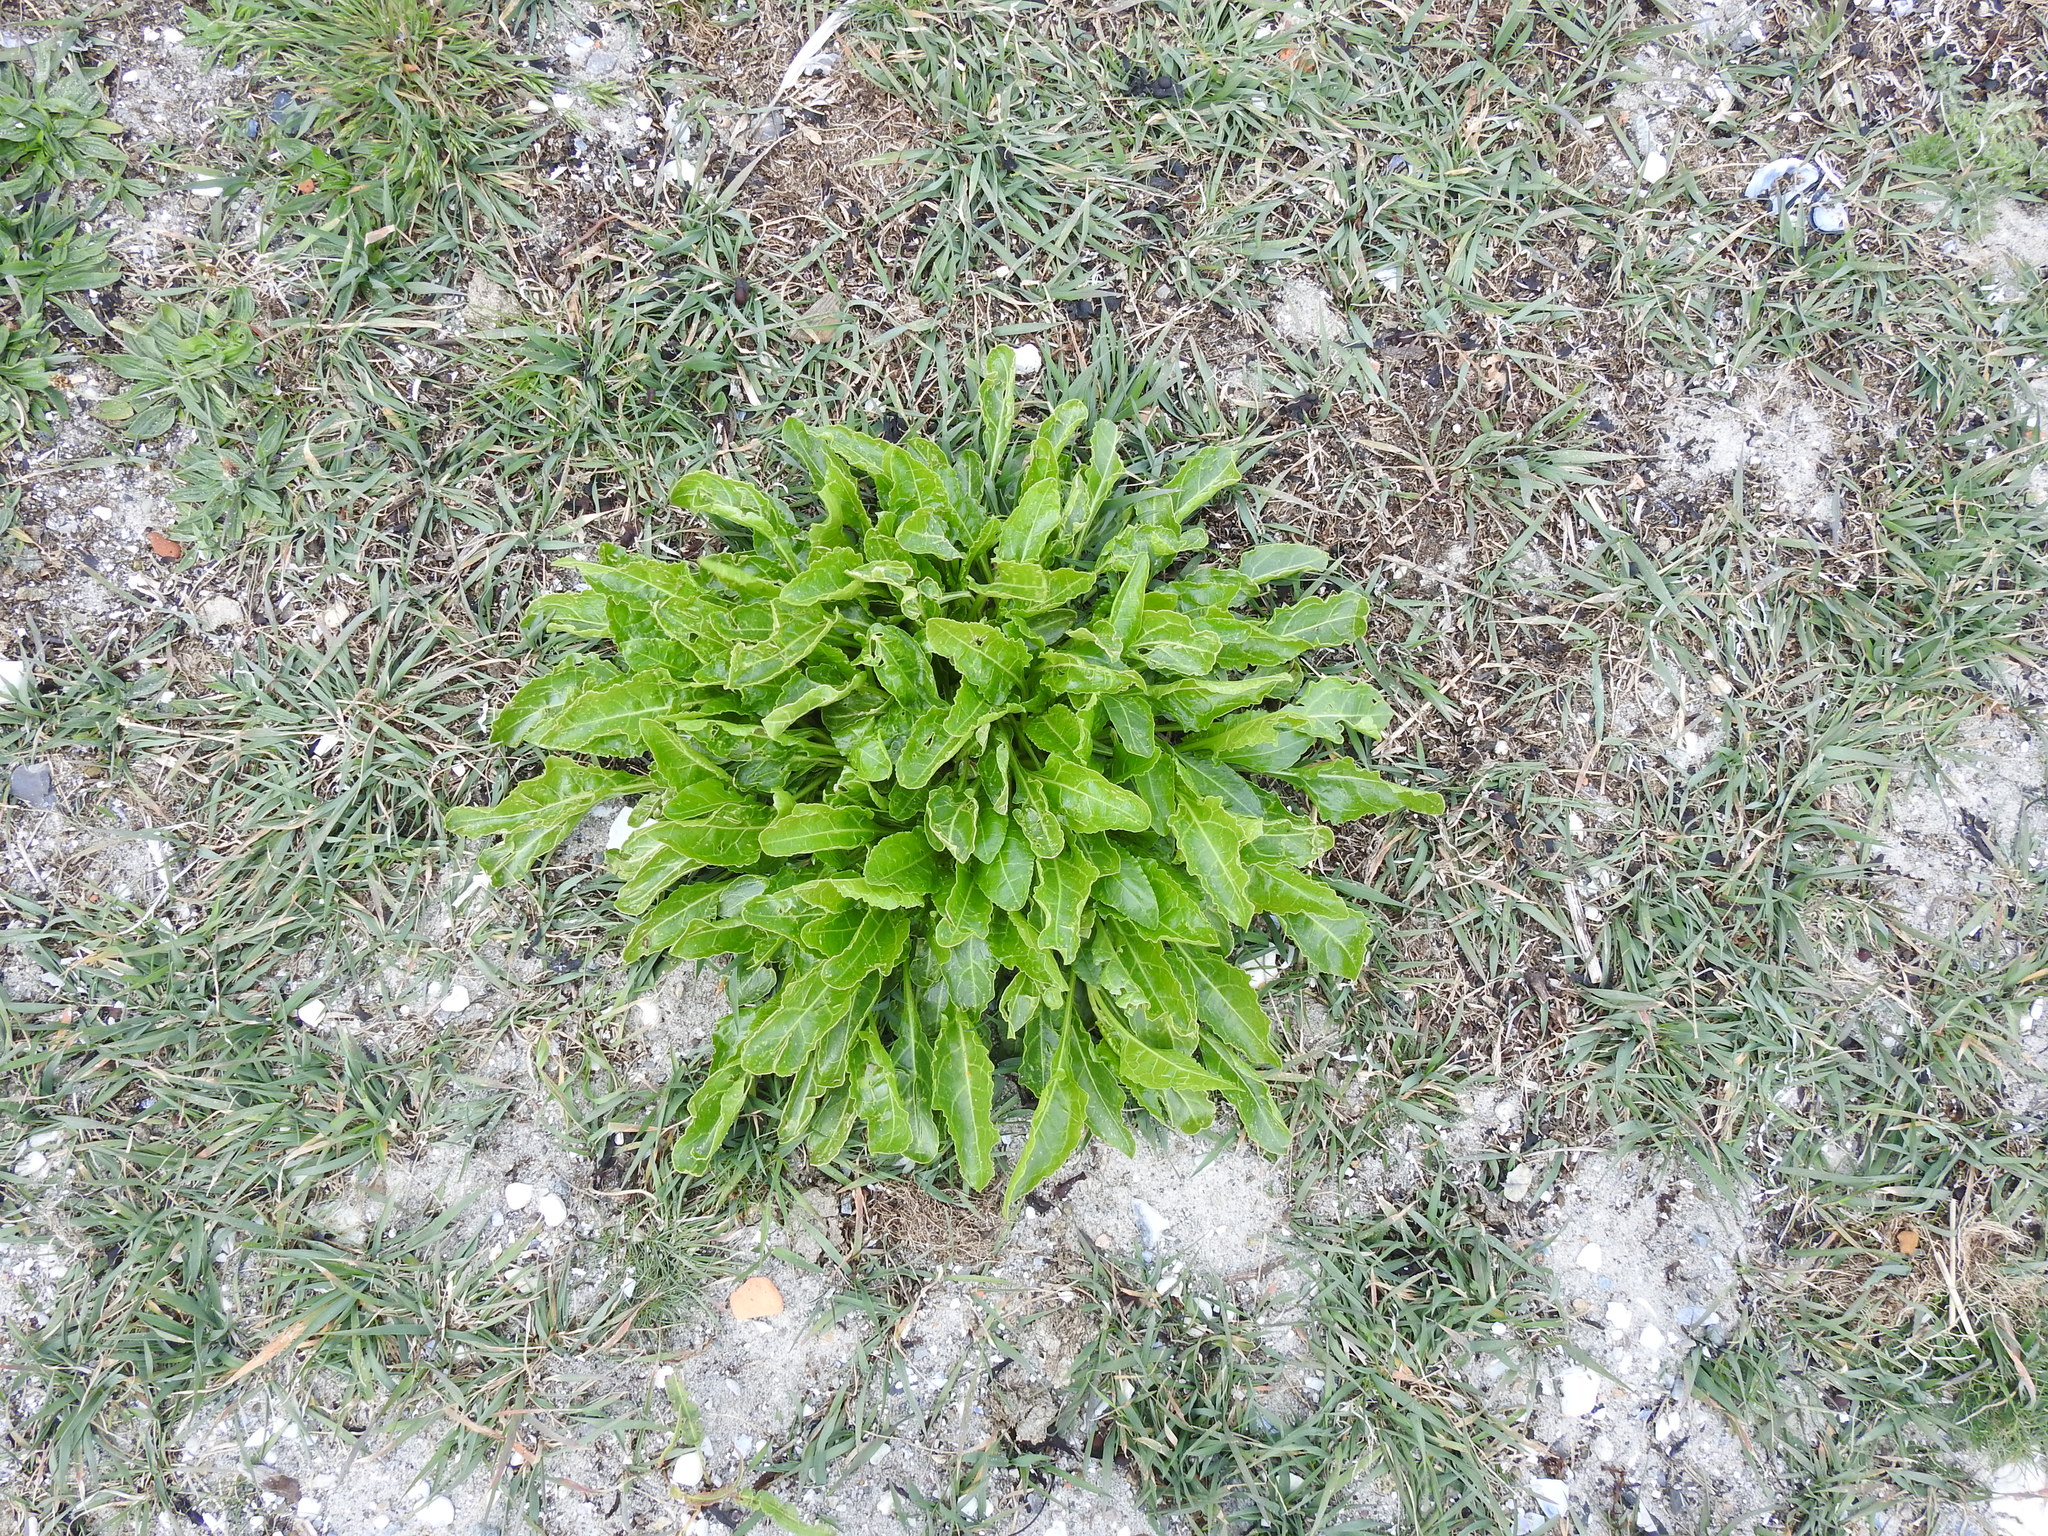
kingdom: Plantae
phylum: Tracheophyta
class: Magnoliopsida
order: Caryophyllales
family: Amaranthaceae
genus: Beta
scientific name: Beta vulgaris
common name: Beet
